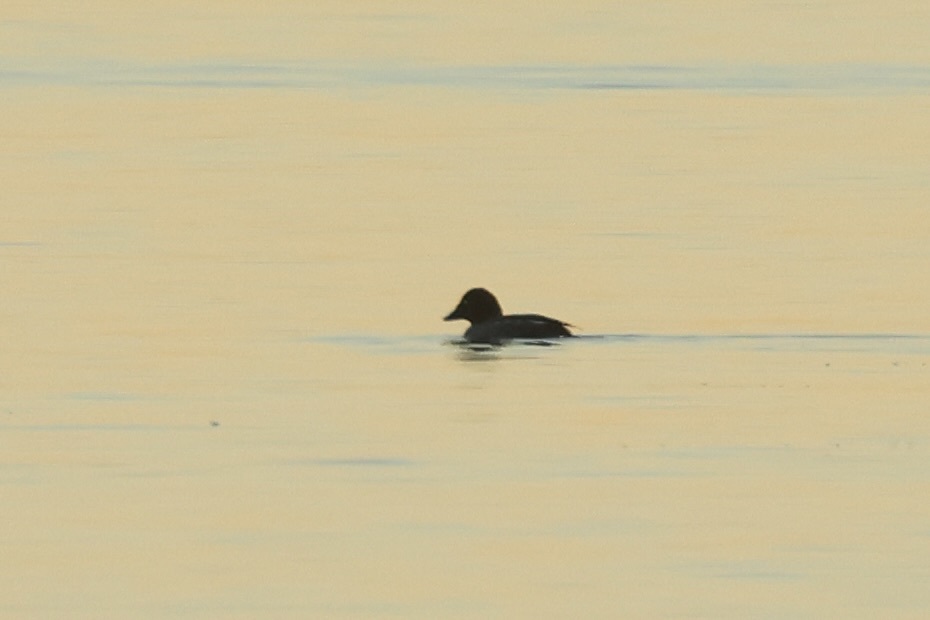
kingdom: Animalia
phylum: Chordata
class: Aves
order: Anseriformes
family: Anatidae
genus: Bucephala
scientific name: Bucephala clangula
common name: Common goldeneye
